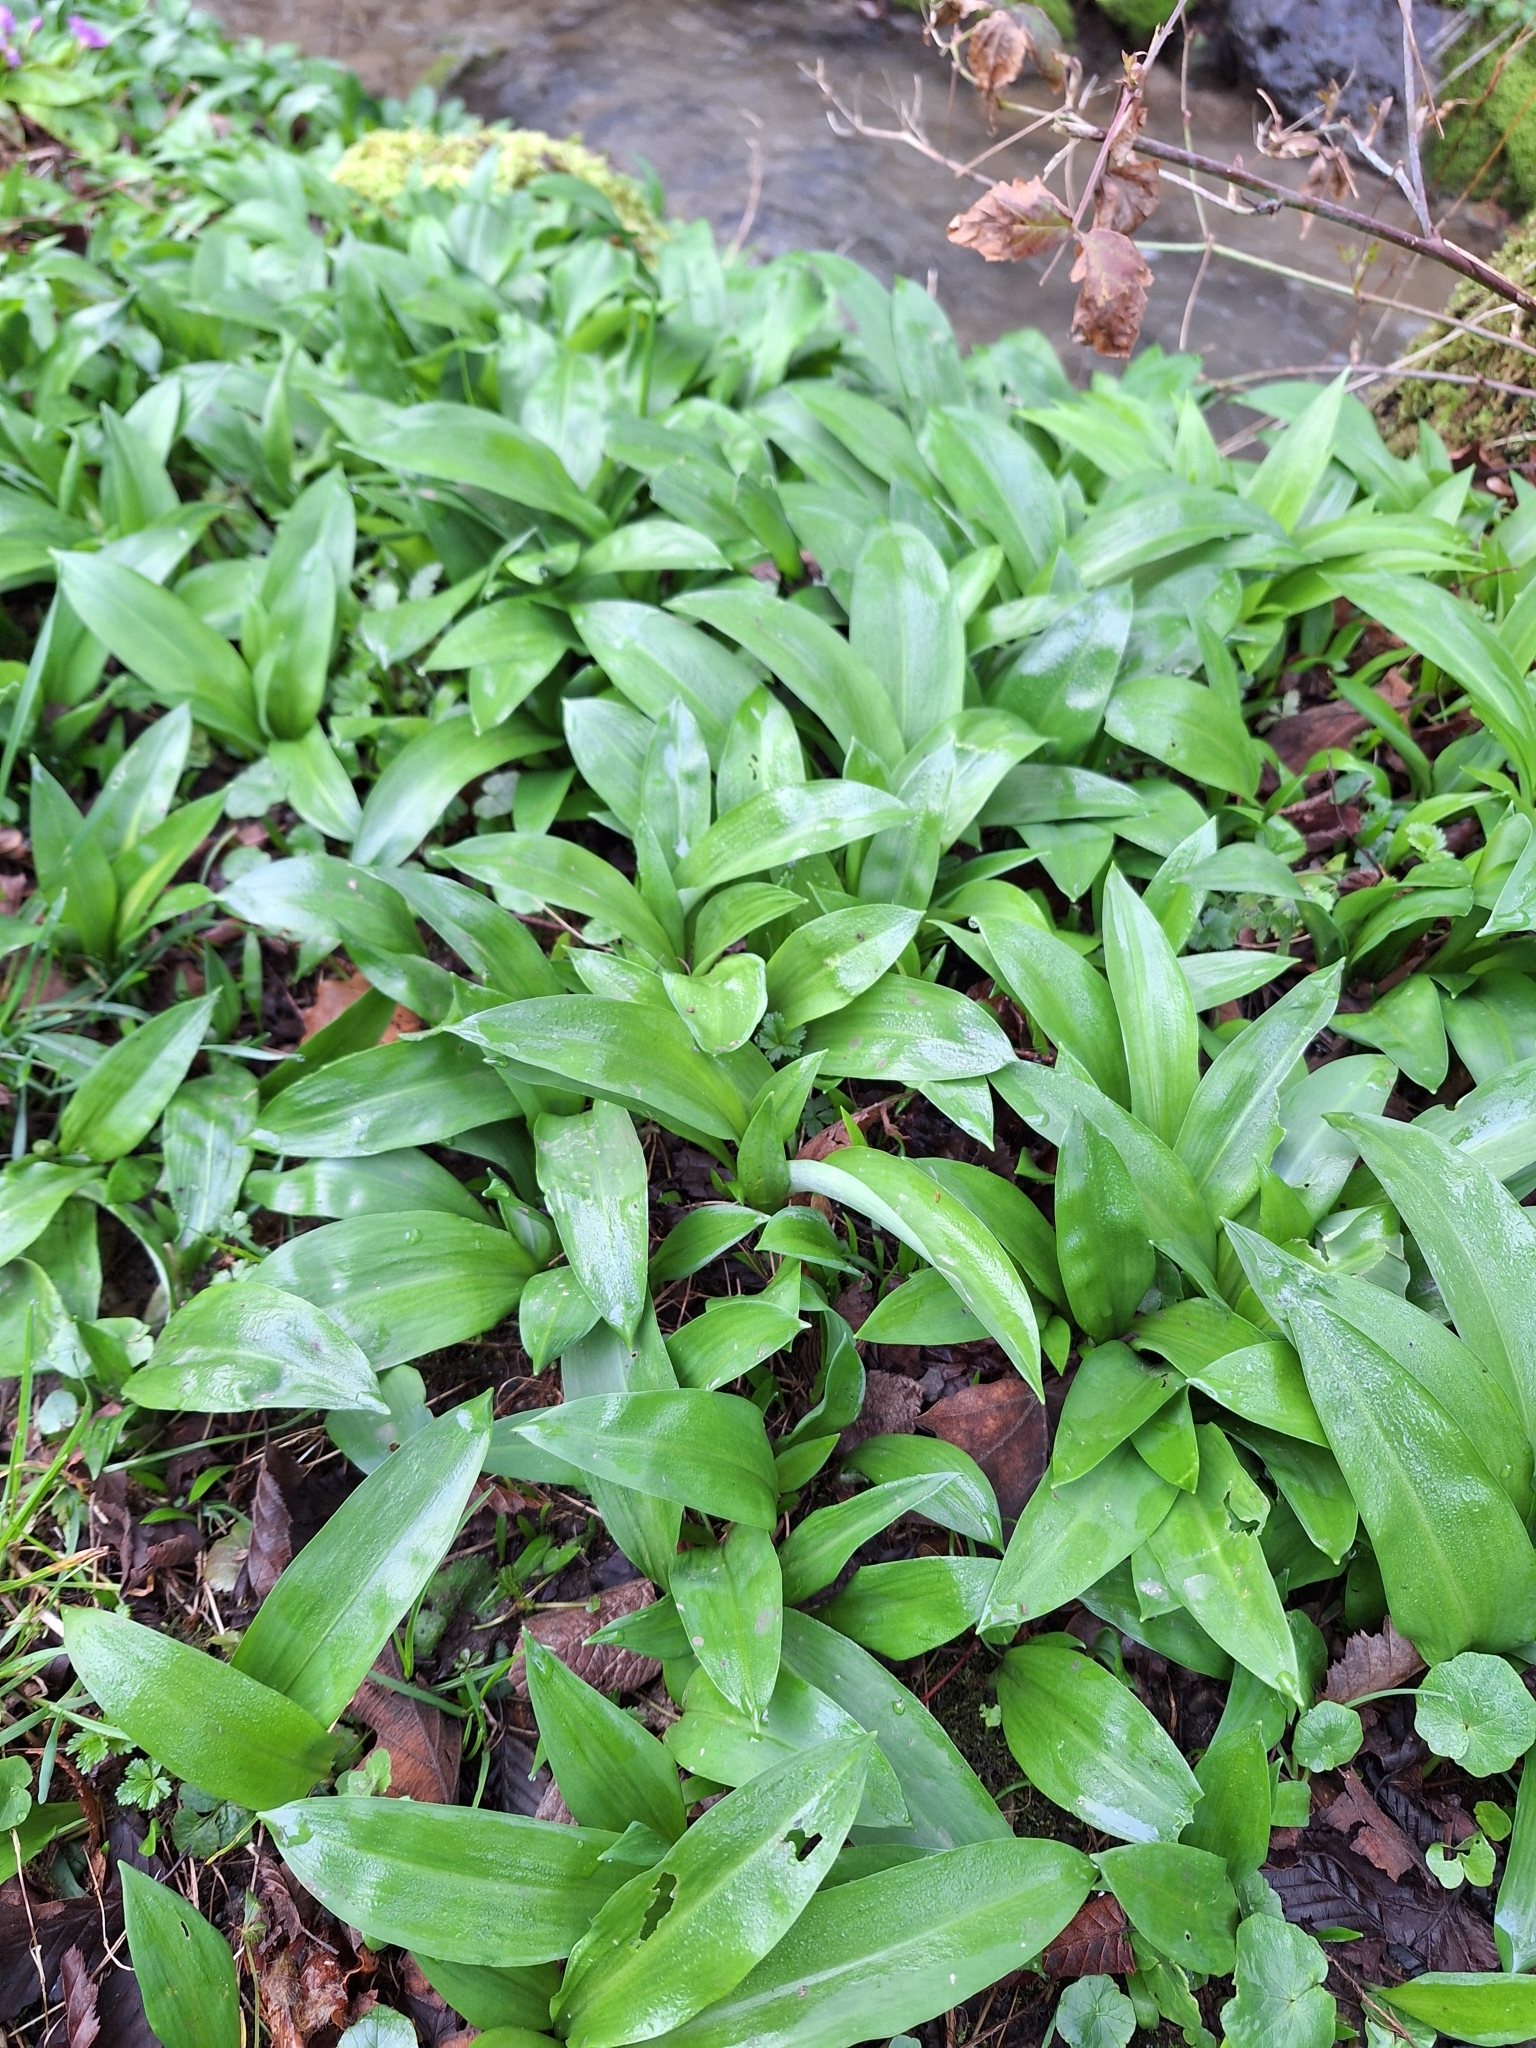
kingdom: Plantae
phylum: Tracheophyta
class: Liliopsida
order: Asparagales
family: Amaryllidaceae
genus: Allium
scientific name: Allium ursinum
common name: Ramsons
